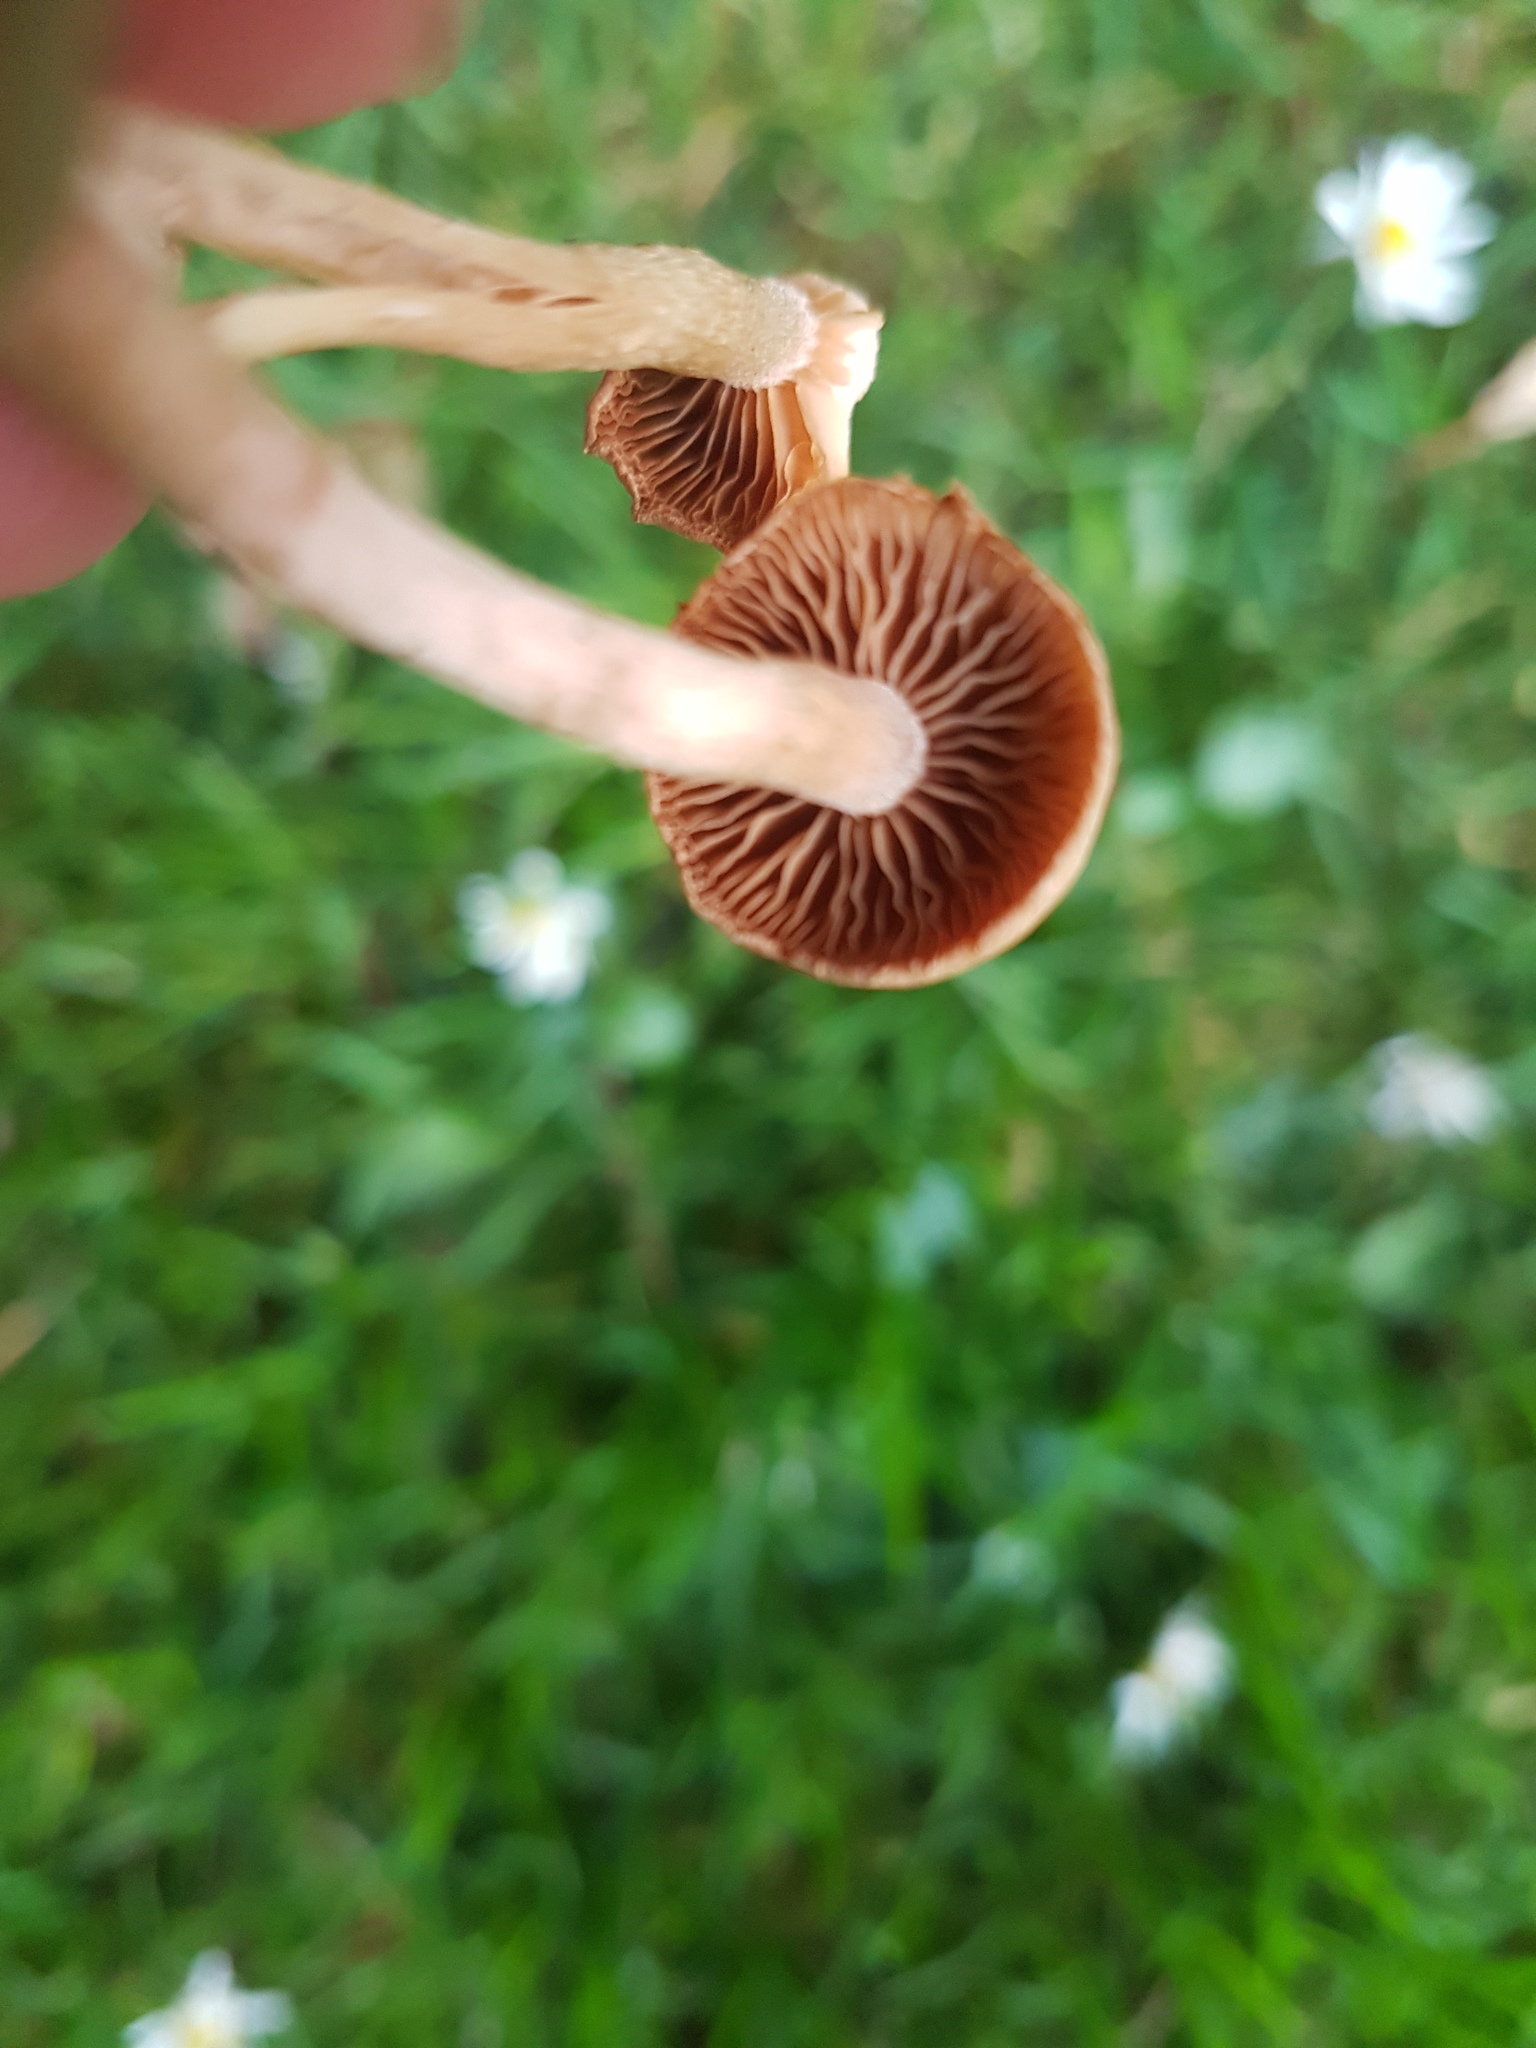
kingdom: Fungi
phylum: Basidiomycota
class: Agaricomycetes
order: Agaricales
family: Tubariaceae
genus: Tubaria
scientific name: Tubaria furfuracea
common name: Scurfy twiglet
